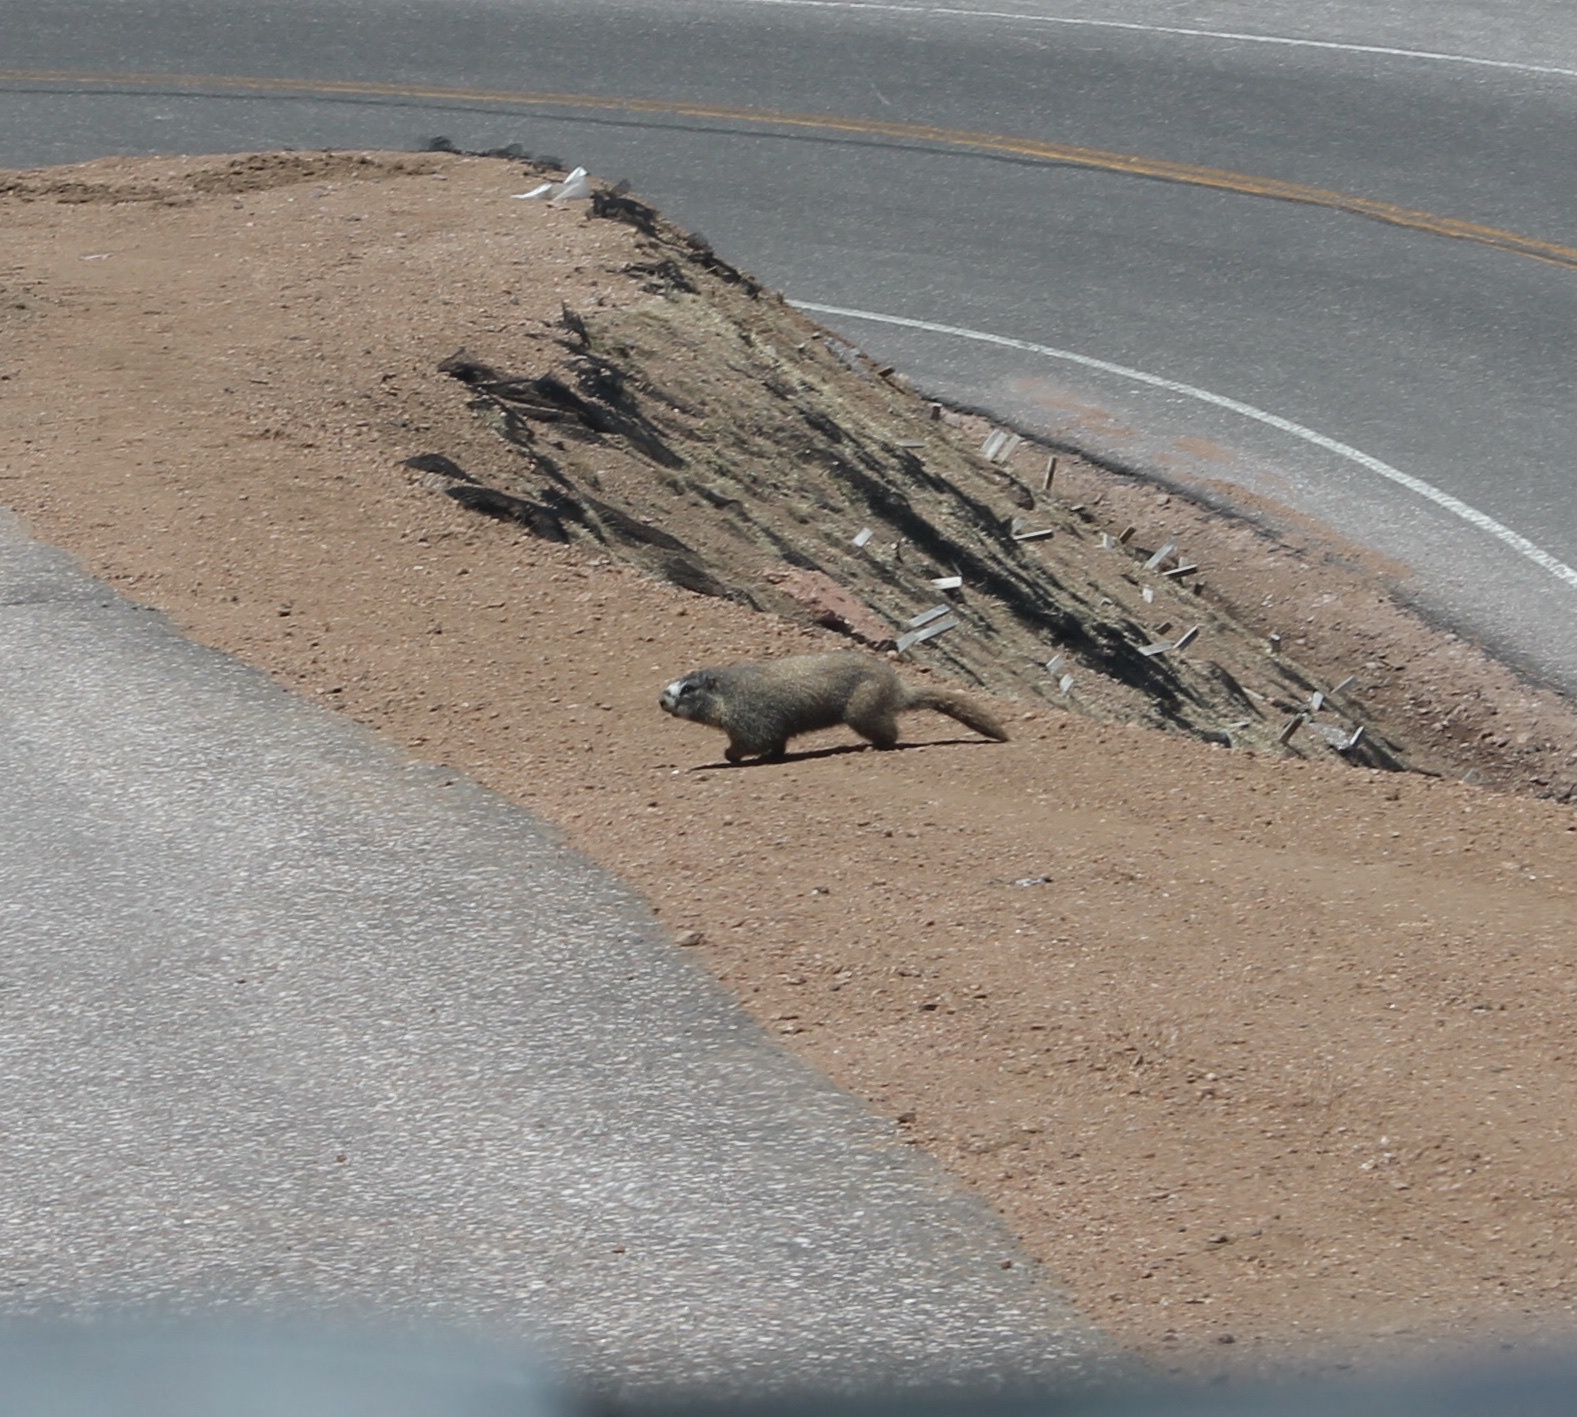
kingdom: Animalia
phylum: Chordata
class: Mammalia
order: Rodentia
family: Sciuridae
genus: Marmota
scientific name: Marmota flaviventris
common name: Yellow-bellied marmot
